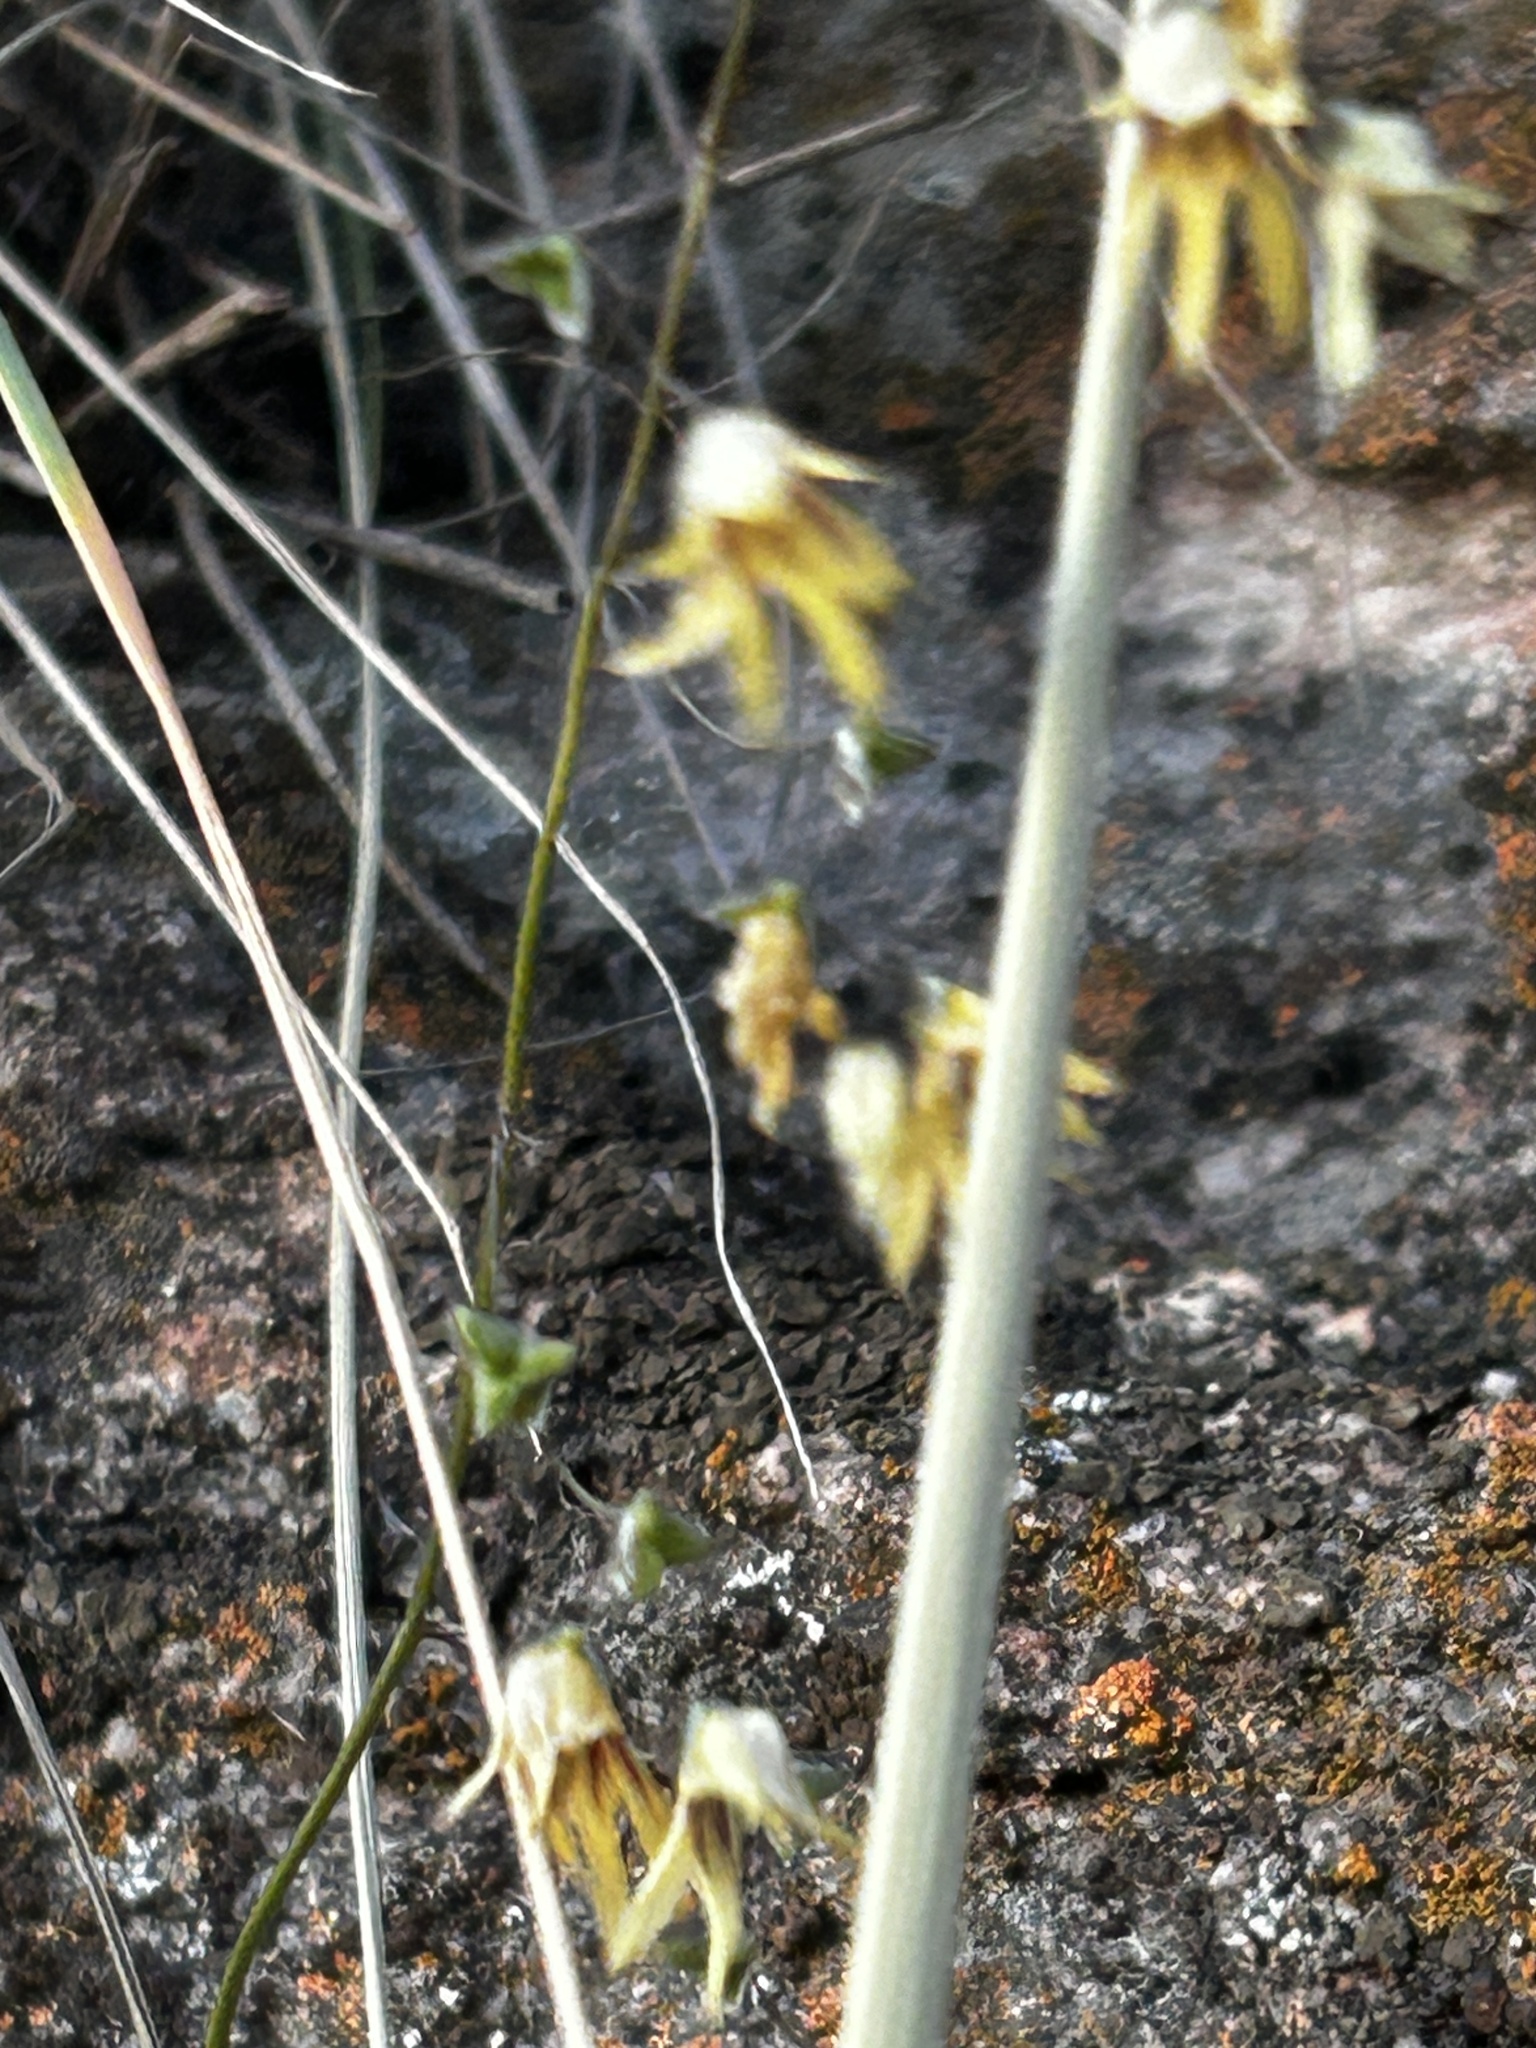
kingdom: Plantae
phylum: Tracheophyta
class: Liliopsida
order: Asparagales
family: Iridaceae
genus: Melasphaerula
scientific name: Melasphaerula graminea
